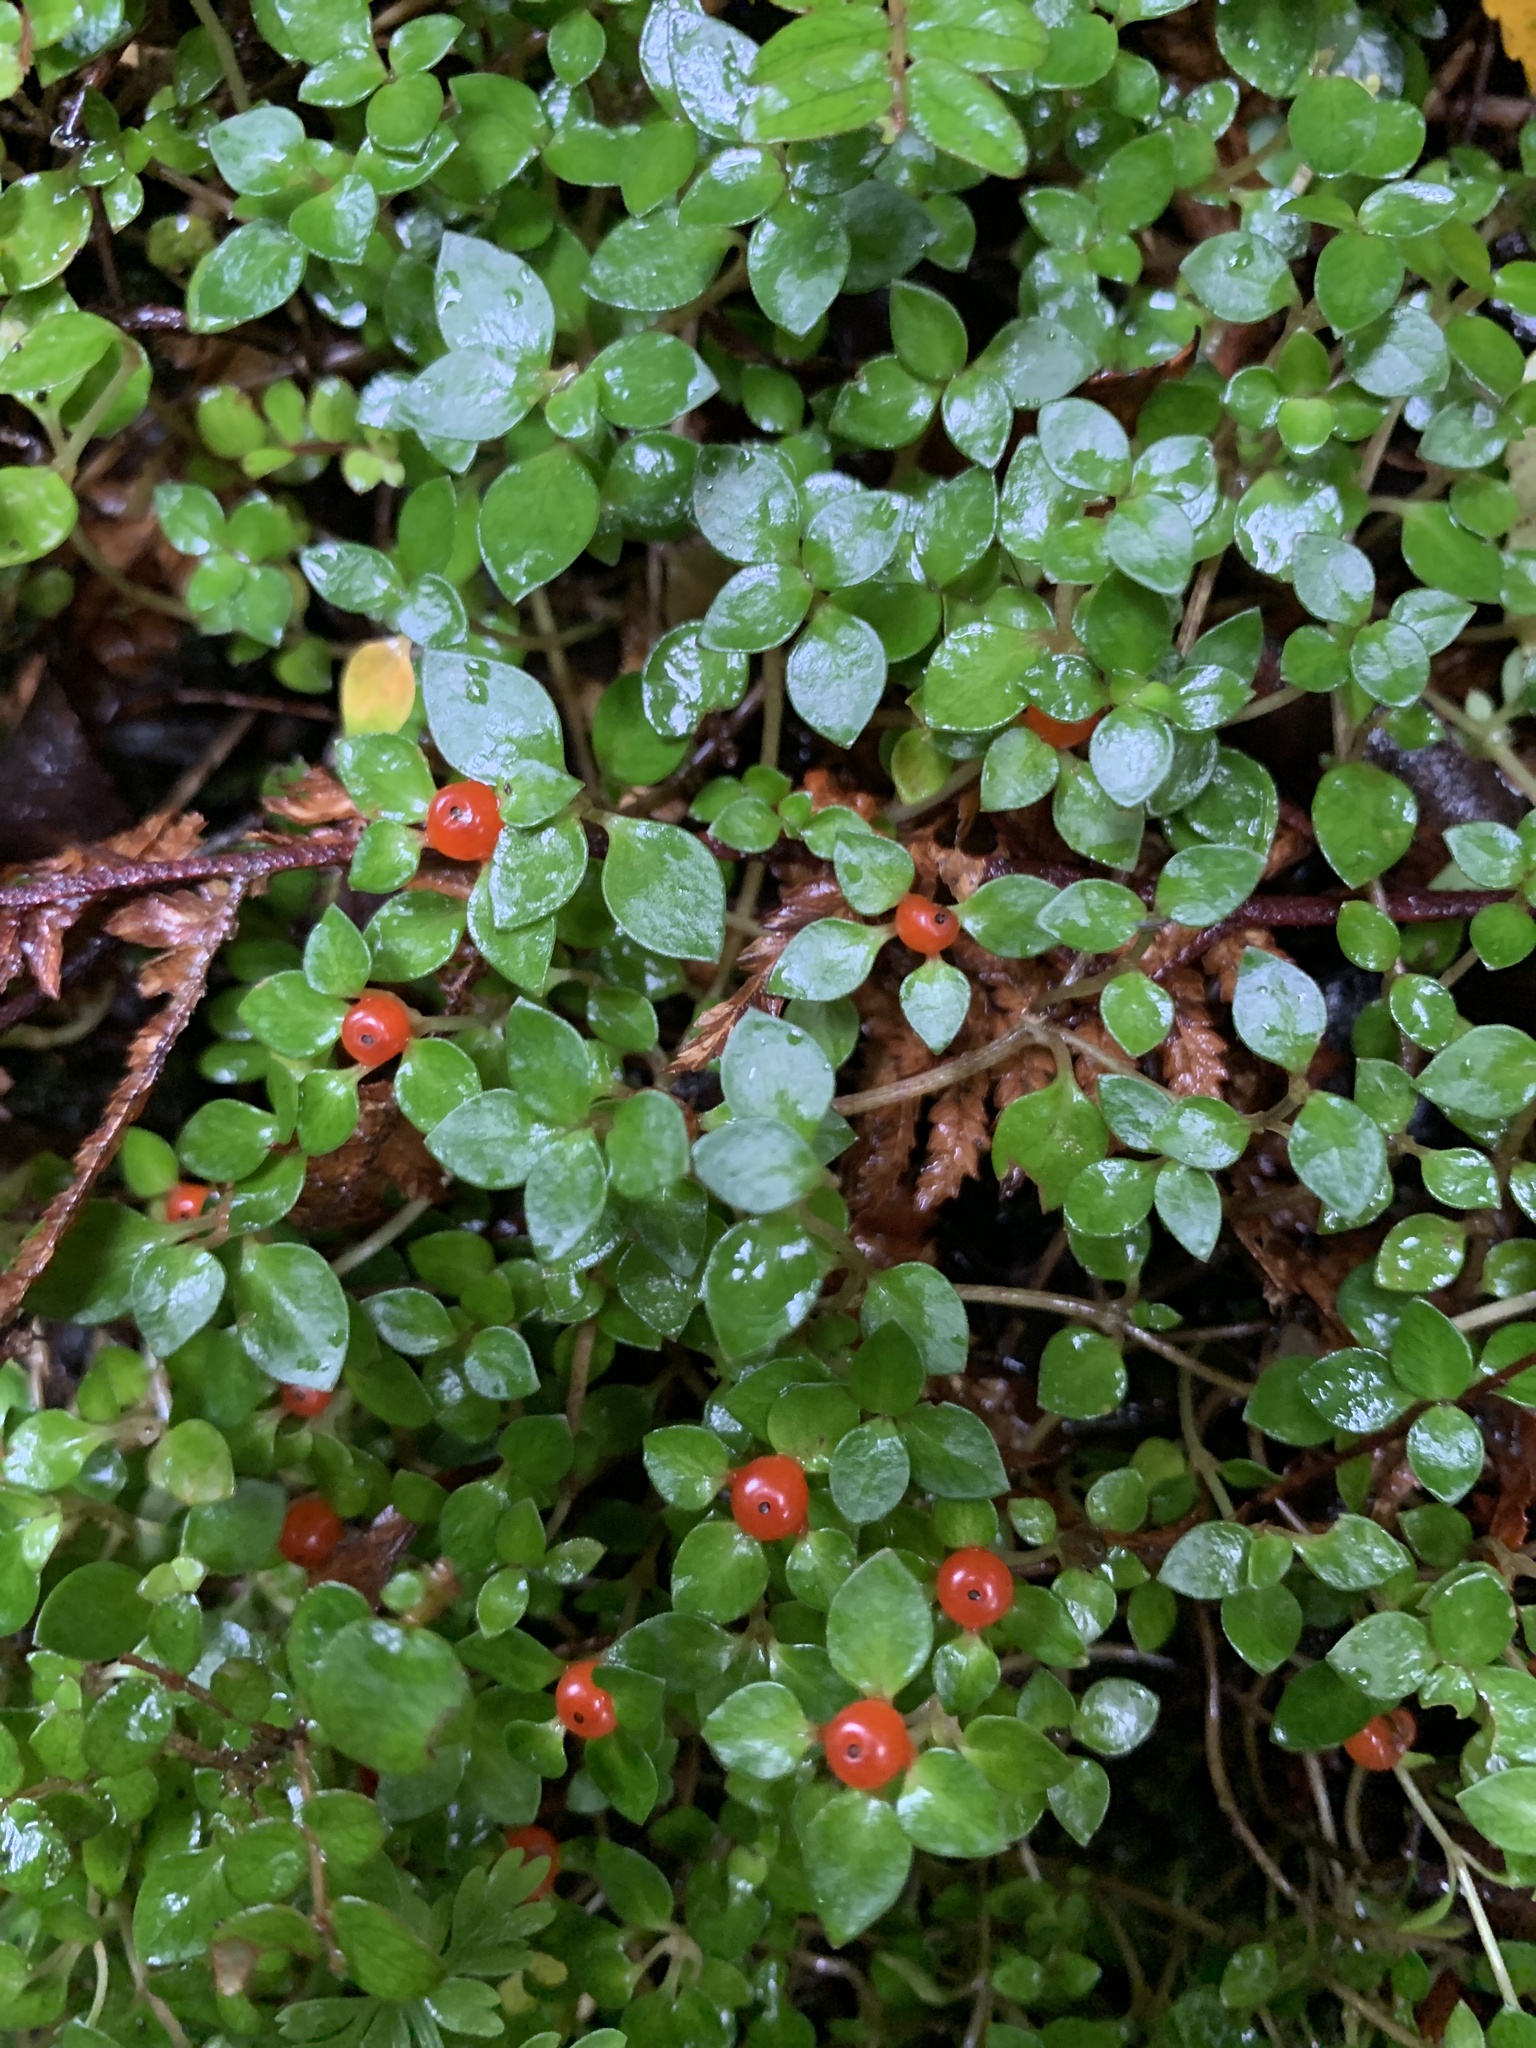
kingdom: Plantae
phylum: Tracheophyta
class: Magnoliopsida
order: Gentianales
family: Rubiaceae
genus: Nertera
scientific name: Nertera granadensis
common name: Beadplant
